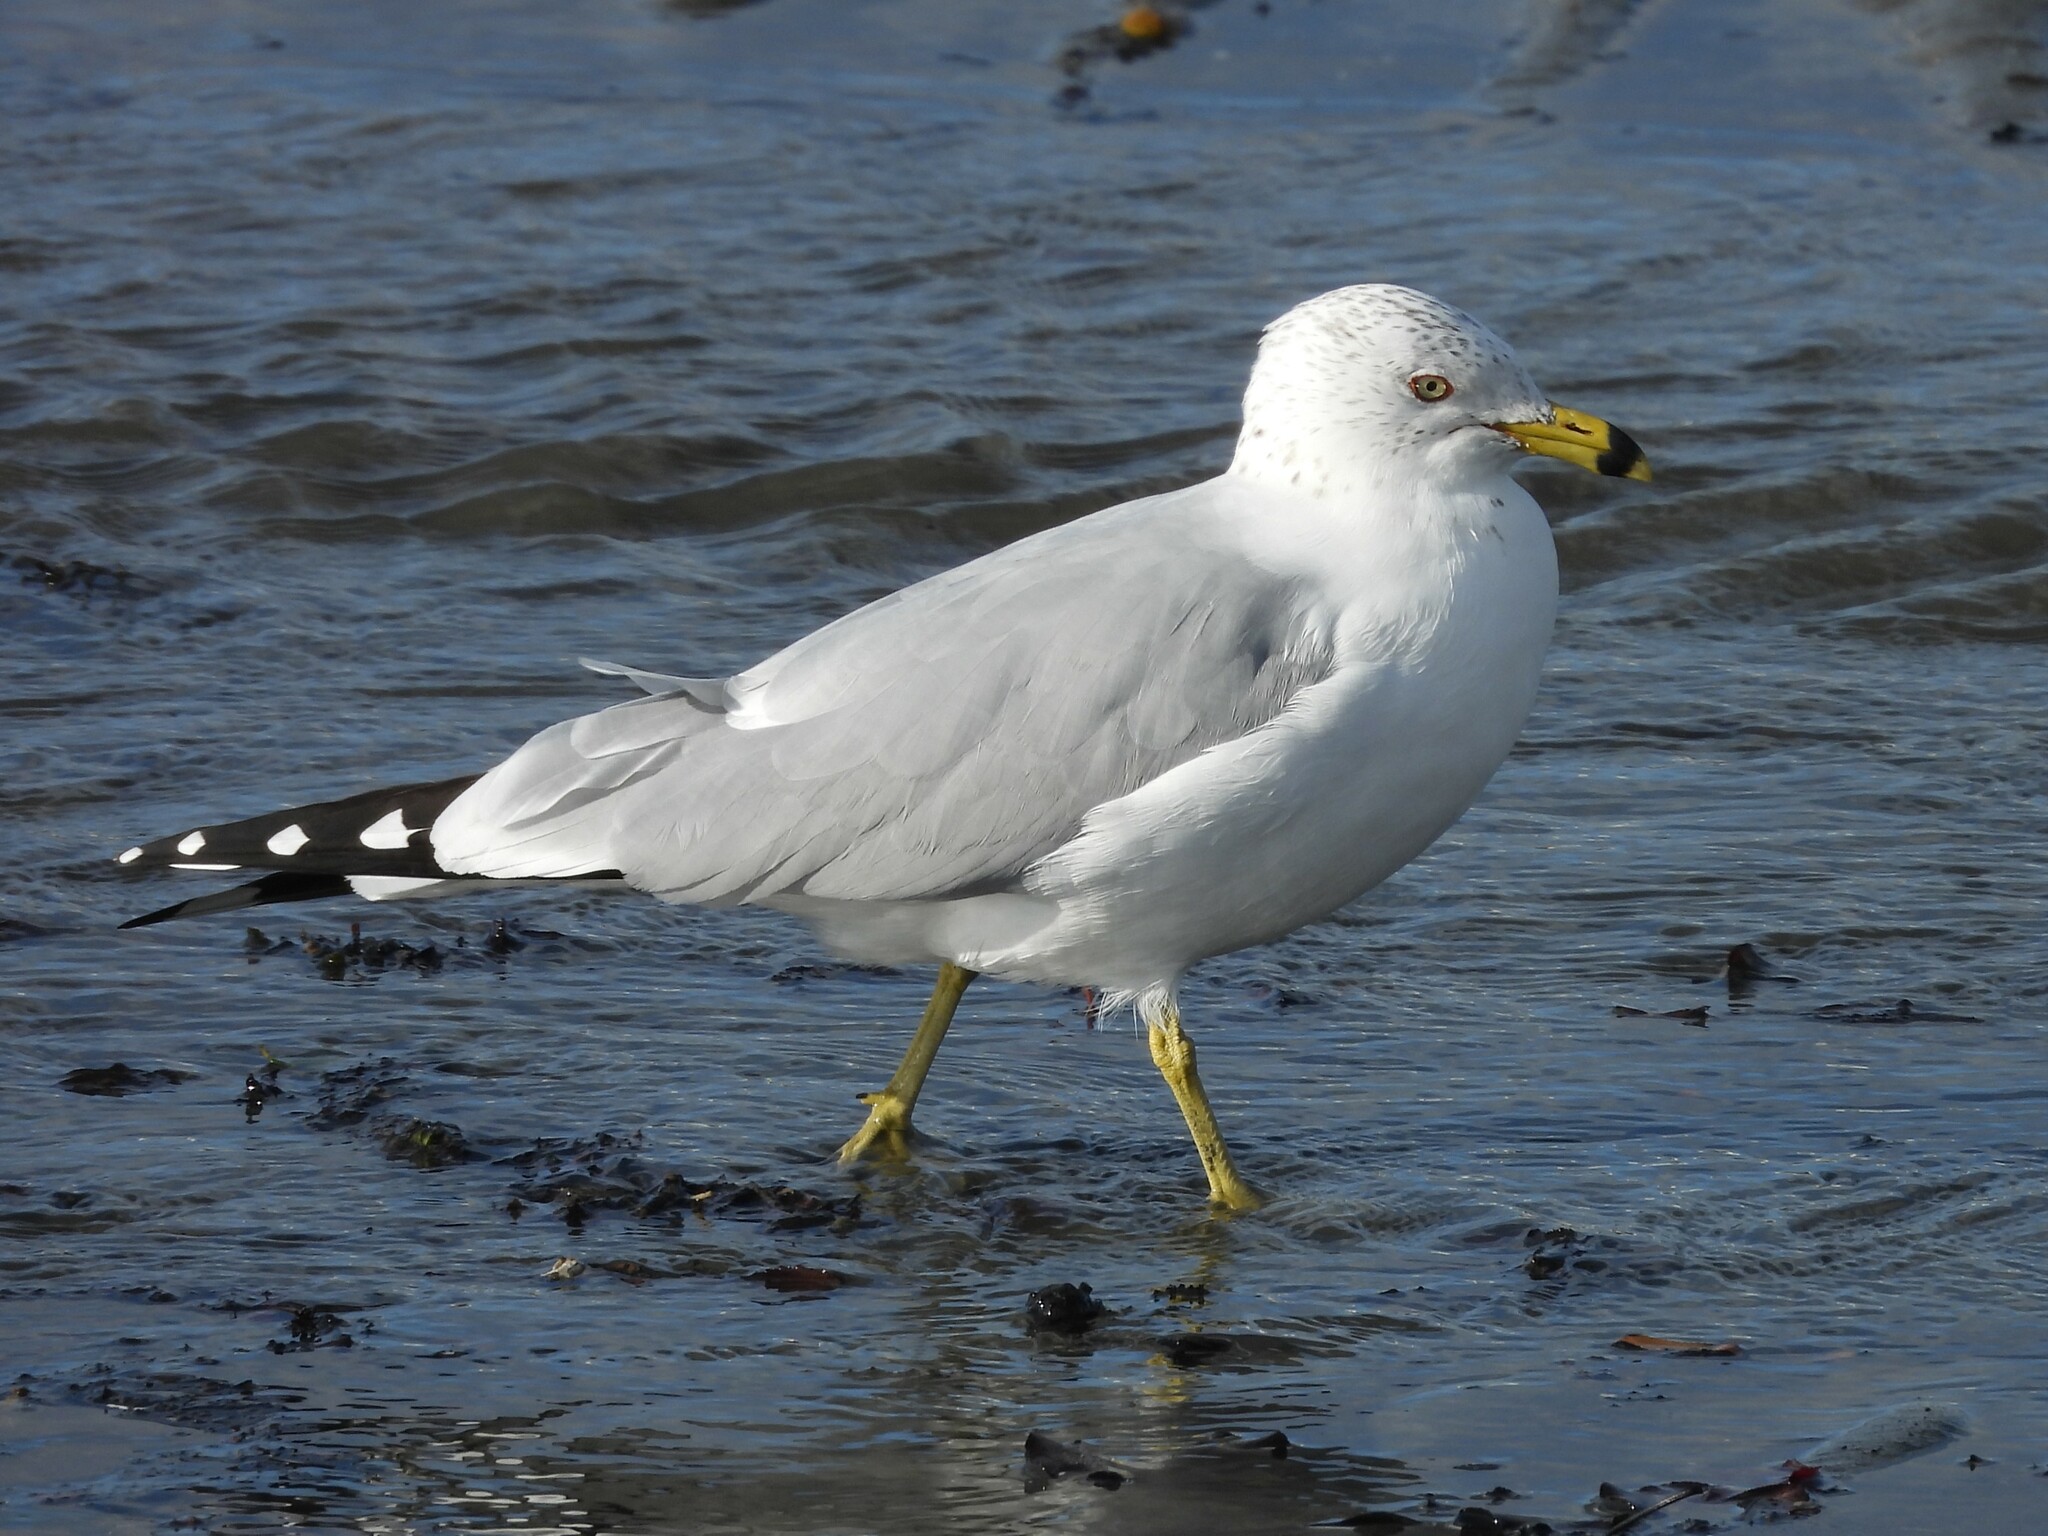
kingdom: Animalia
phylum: Chordata
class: Aves
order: Charadriiformes
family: Laridae
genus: Larus
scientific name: Larus delawarensis
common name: Ring-billed gull
